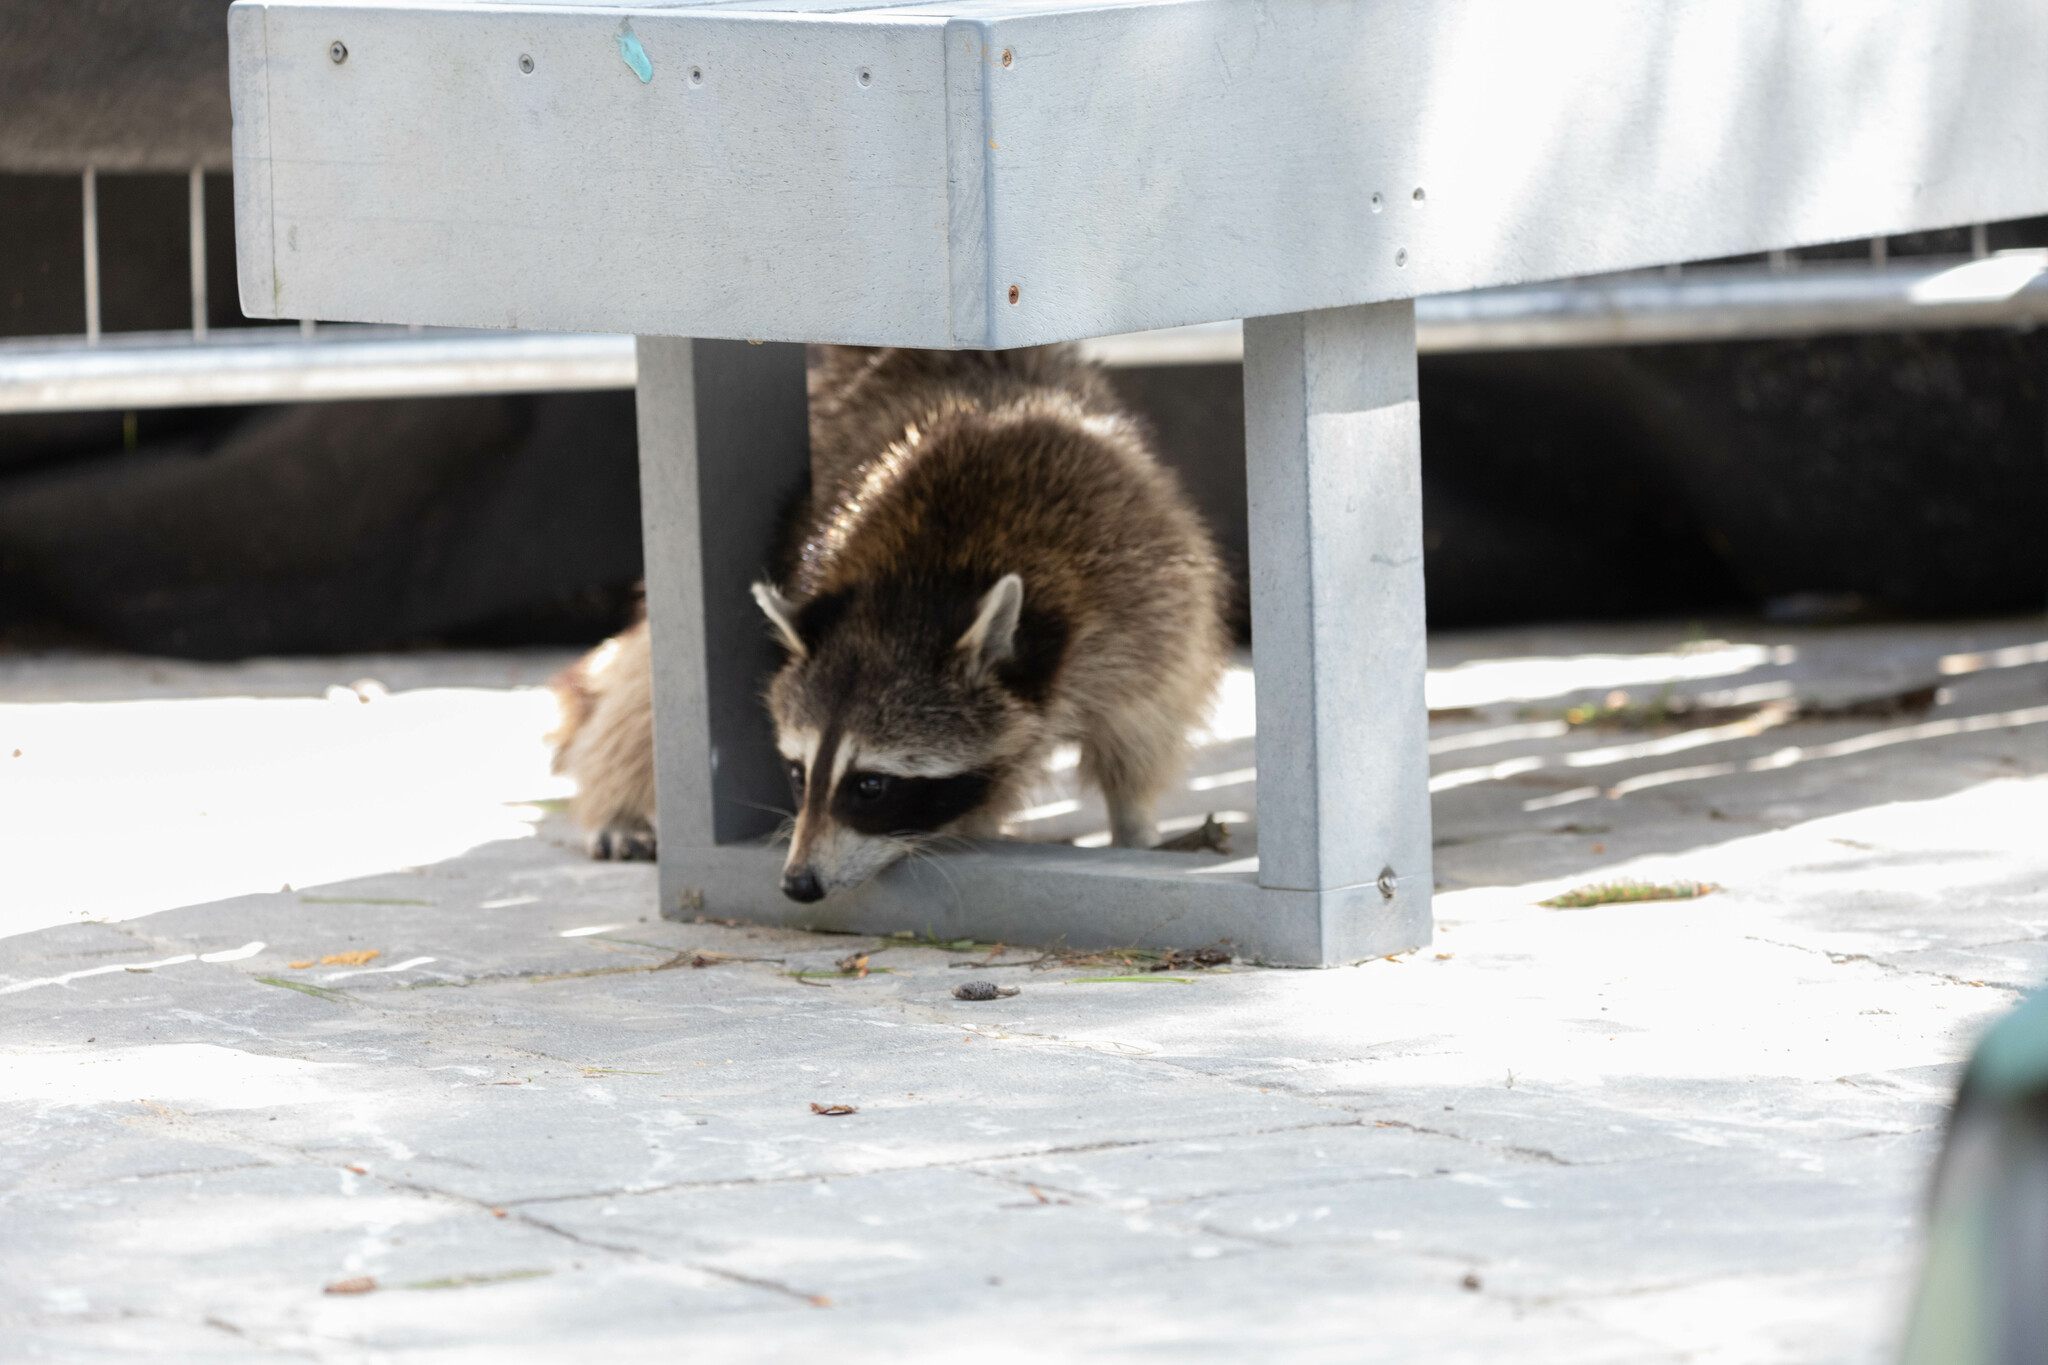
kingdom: Animalia
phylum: Chordata
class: Mammalia
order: Carnivora
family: Procyonidae
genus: Procyon
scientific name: Procyon lotor
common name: Raccoon
